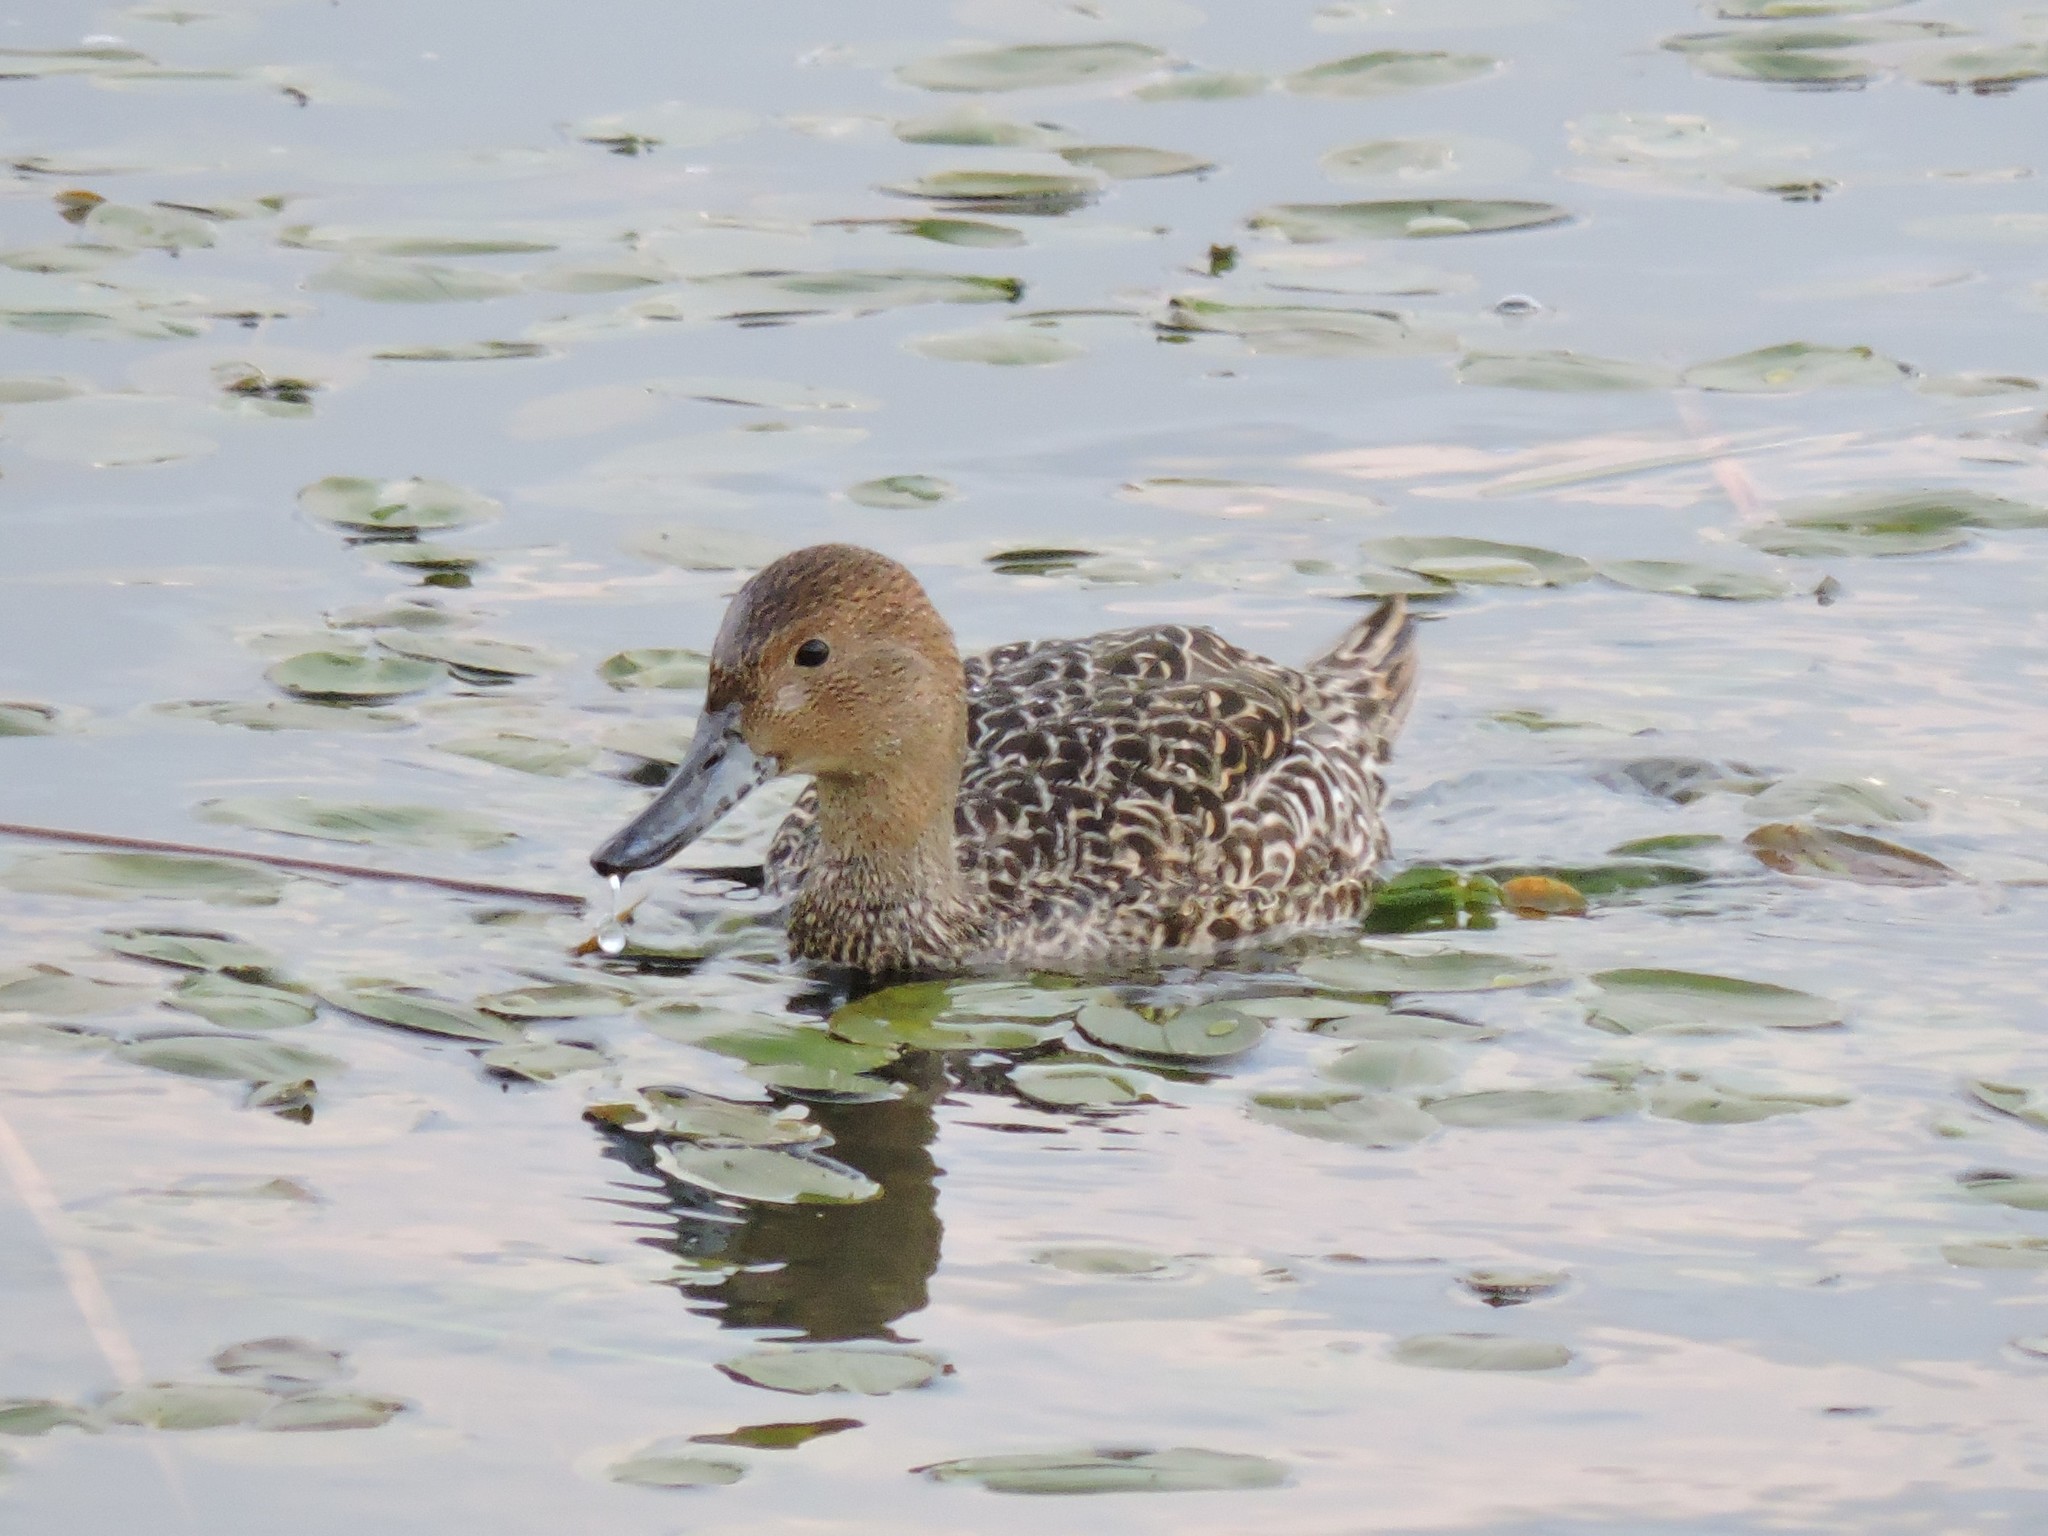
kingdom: Animalia
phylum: Chordata
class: Aves
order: Anseriformes
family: Anatidae
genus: Anas
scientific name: Anas acuta
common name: Northern pintail
